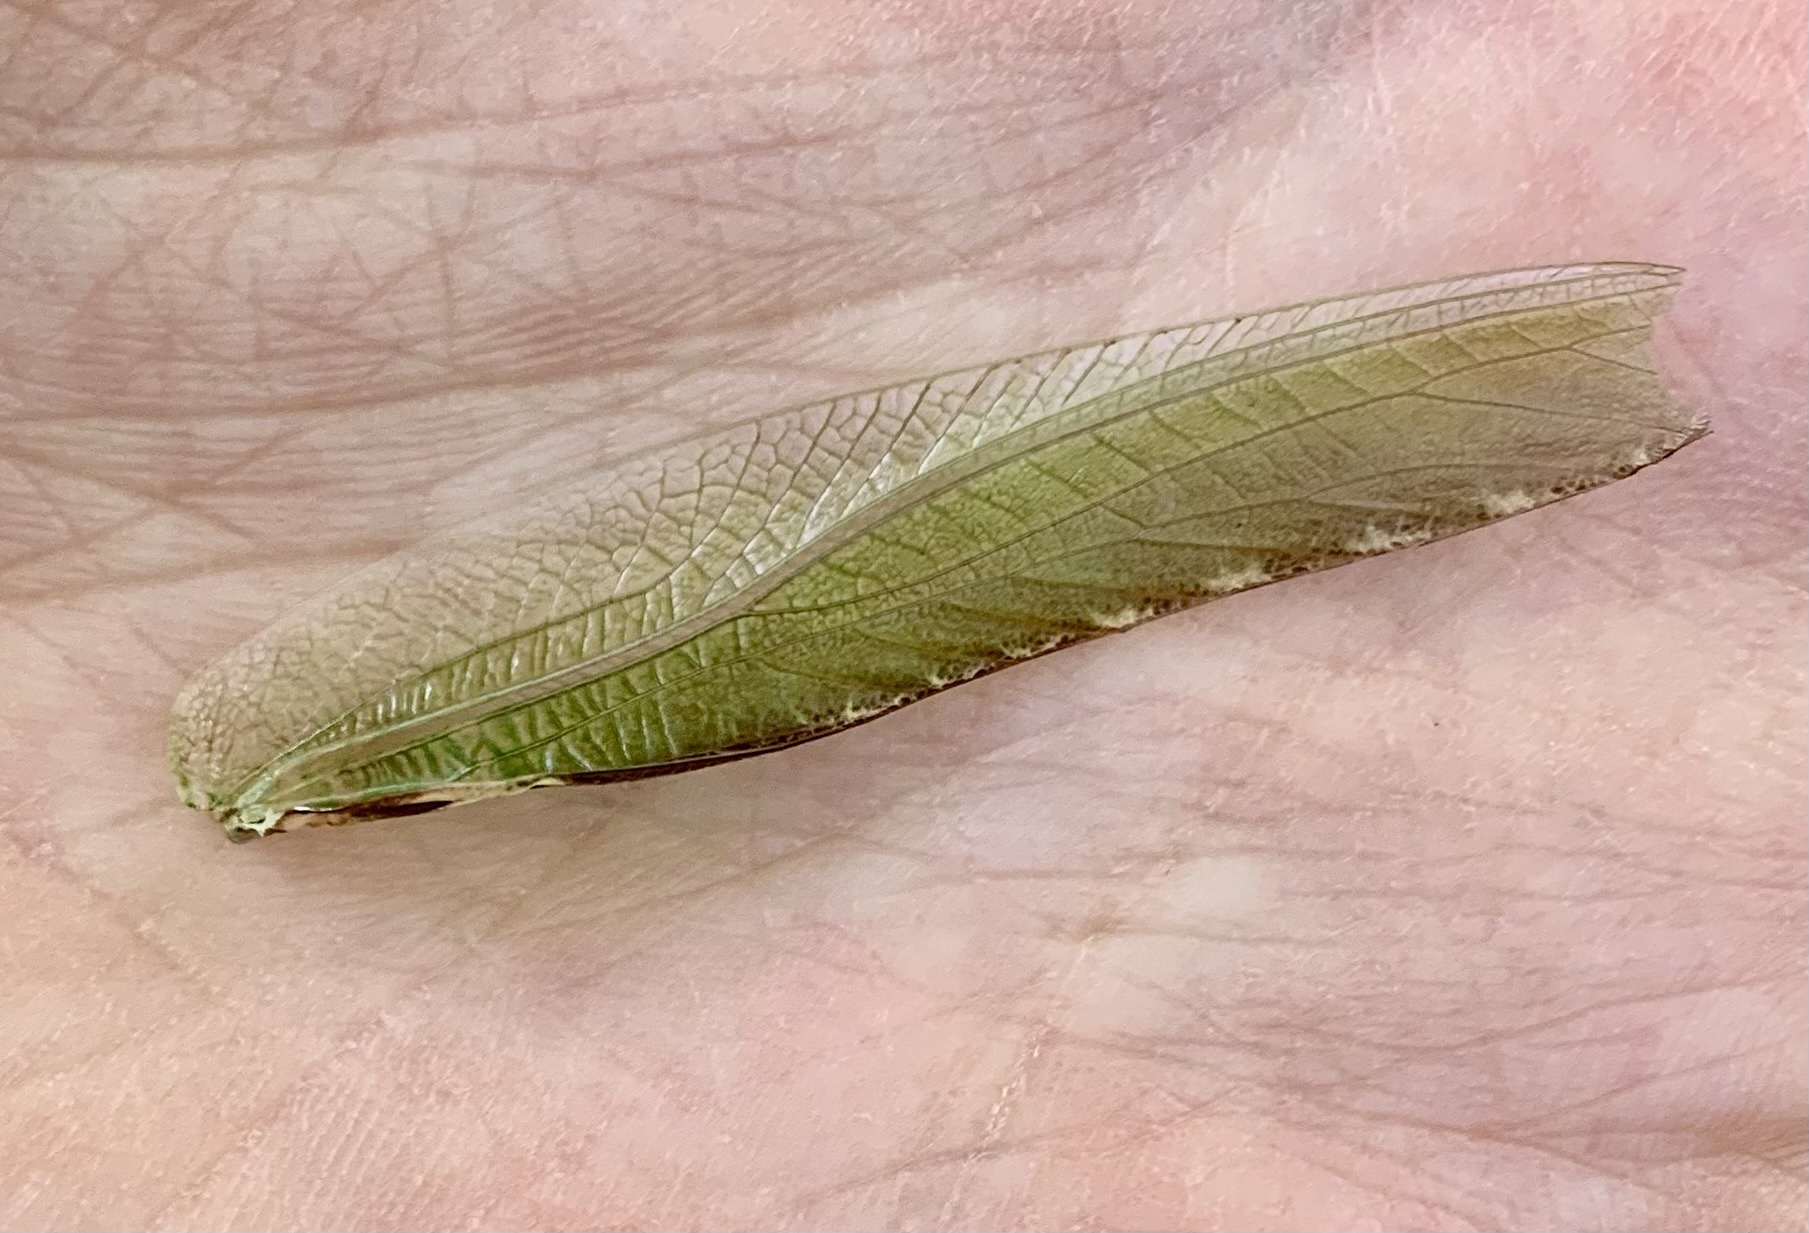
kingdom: Animalia
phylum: Arthropoda
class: Insecta
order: Orthoptera
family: Tettigoniidae
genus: Tettigonia
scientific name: Tettigonia viridissima
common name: Great green bush-cricket
